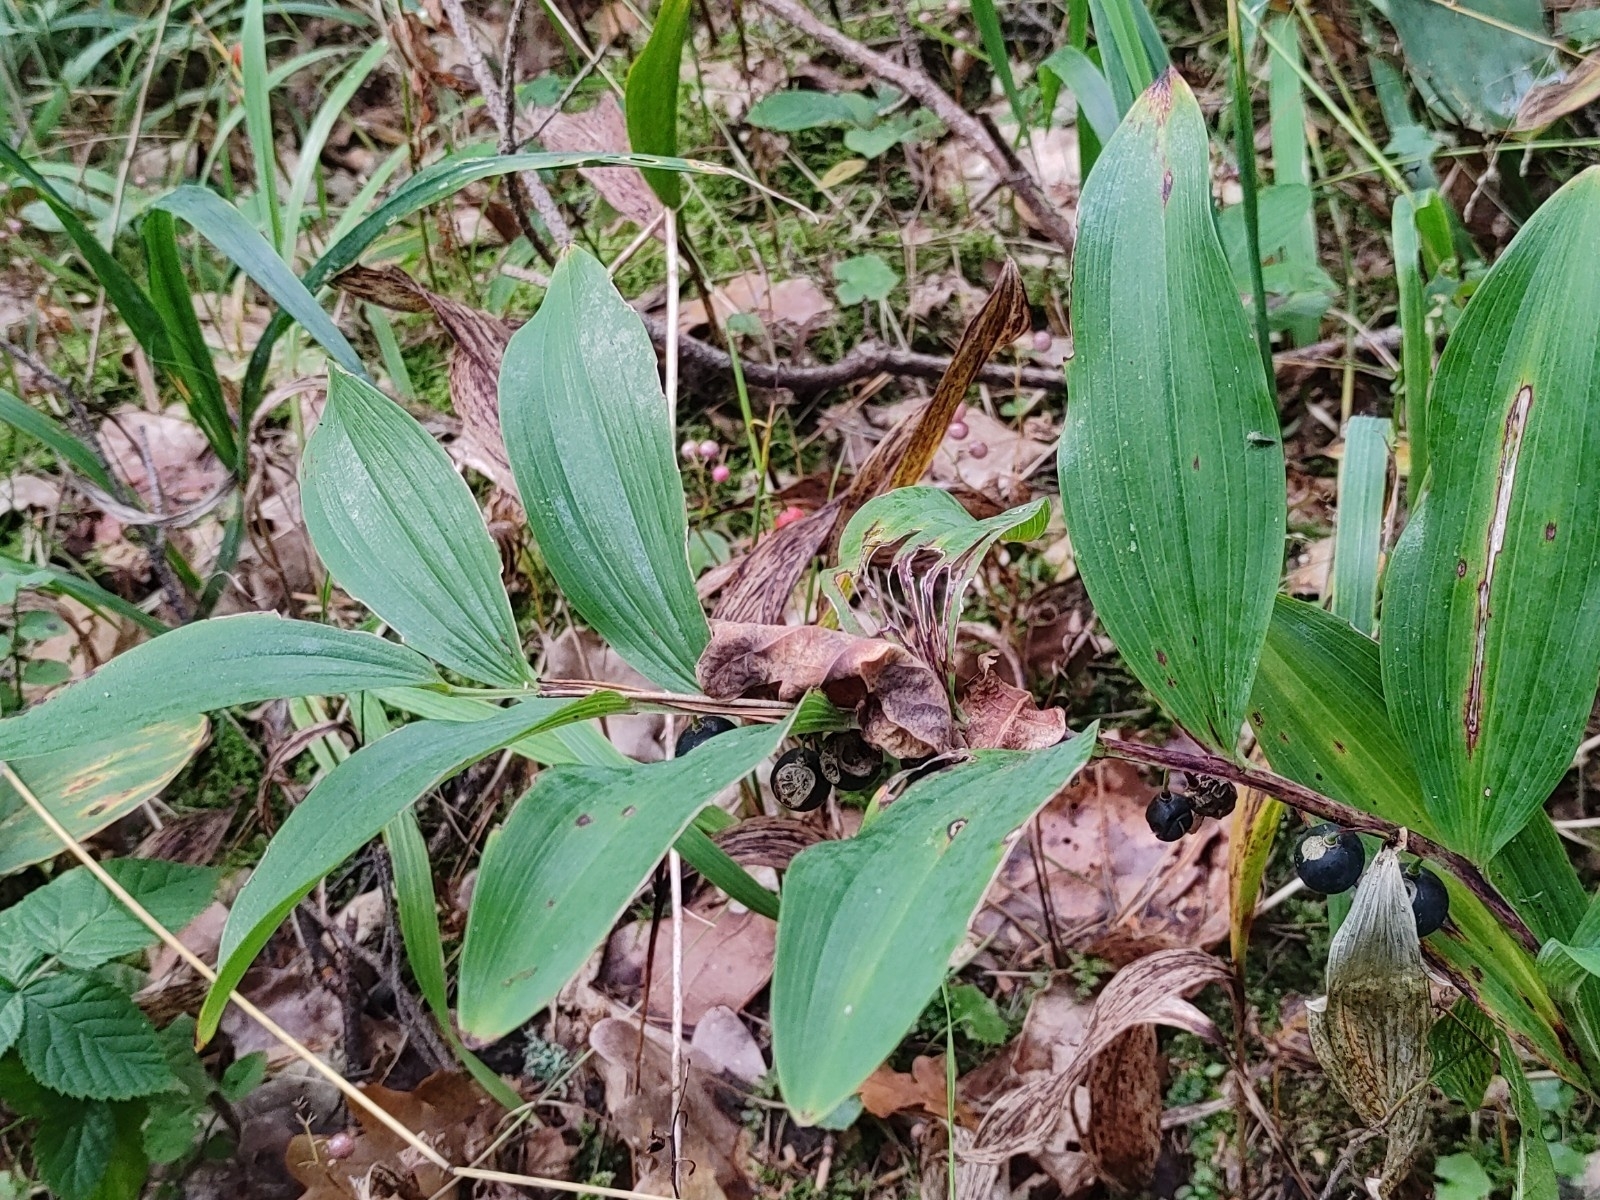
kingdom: Plantae
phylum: Tracheophyta
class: Liliopsida
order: Asparagales
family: Asparagaceae
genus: Polygonatum
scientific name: Polygonatum odoratum
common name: Angular solomon's-seal
